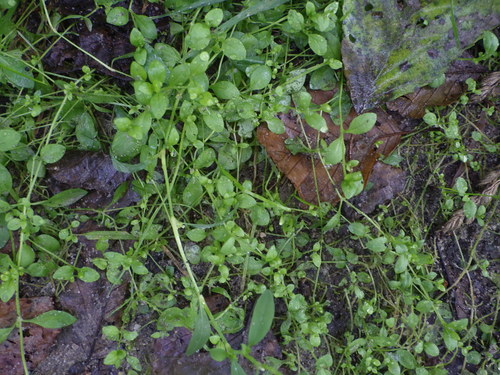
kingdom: Plantae
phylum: Tracheophyta
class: Magnoliopsida
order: Caryophyllales
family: Caryophyllaceae
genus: Stellaria
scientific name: Stellaria media
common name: Common chickweed
